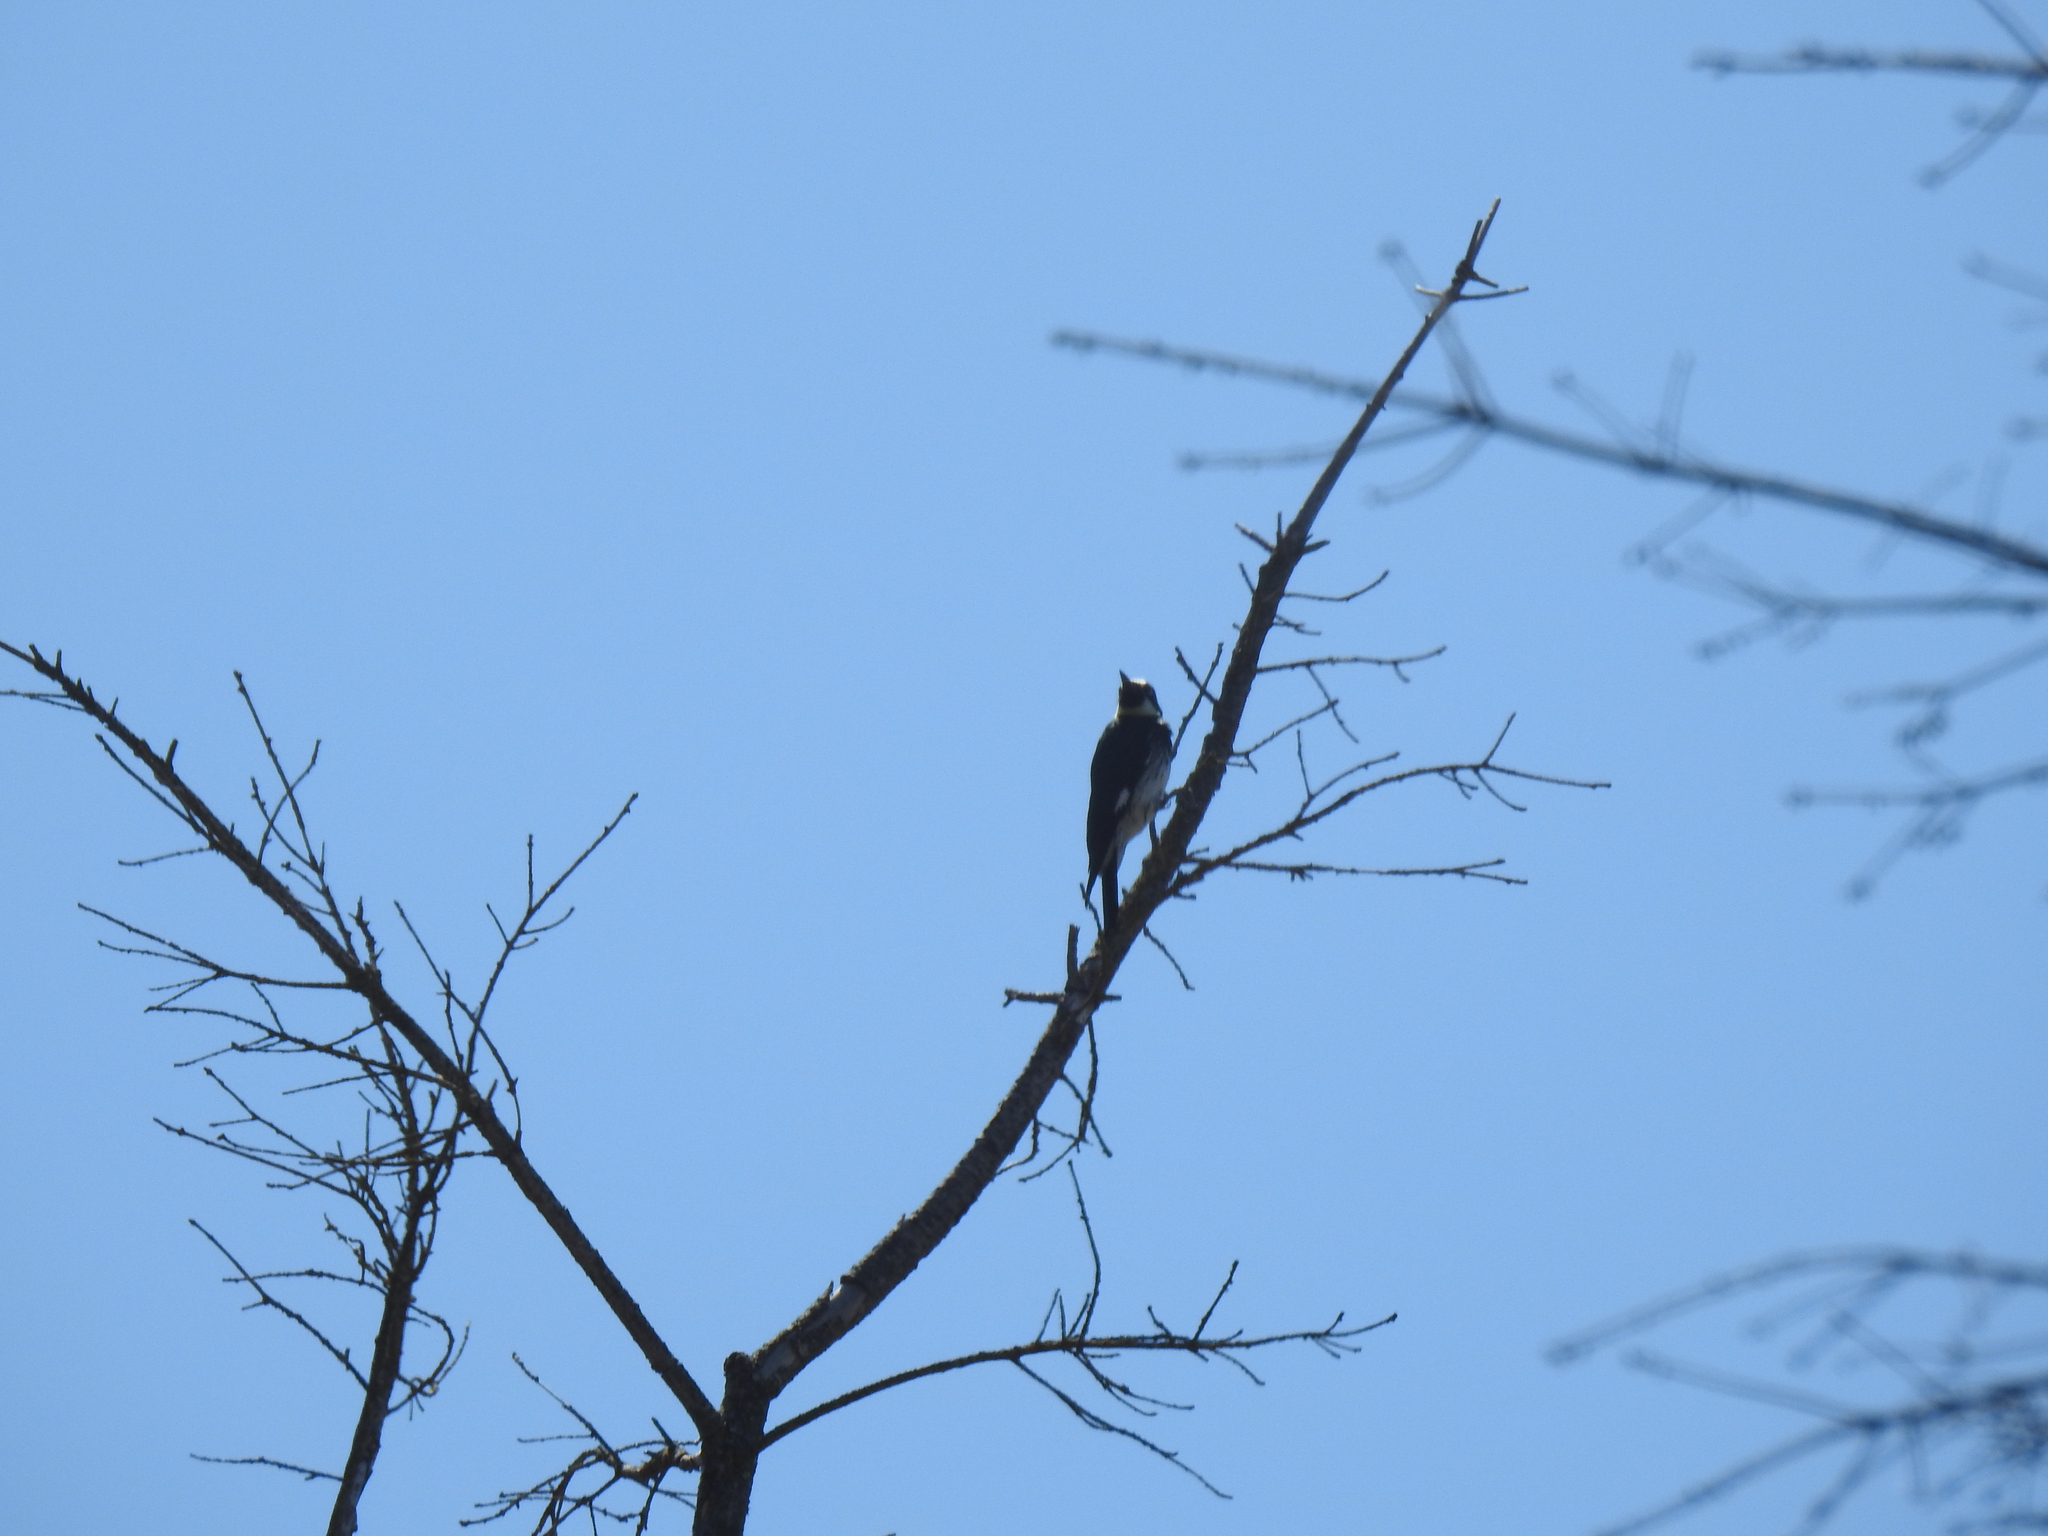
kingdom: Animalia
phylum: Chordata
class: Aves
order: Piciformes
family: Picidae
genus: Melanerpes
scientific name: Melanerpes formicivorus
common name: Acorn woodpecker
